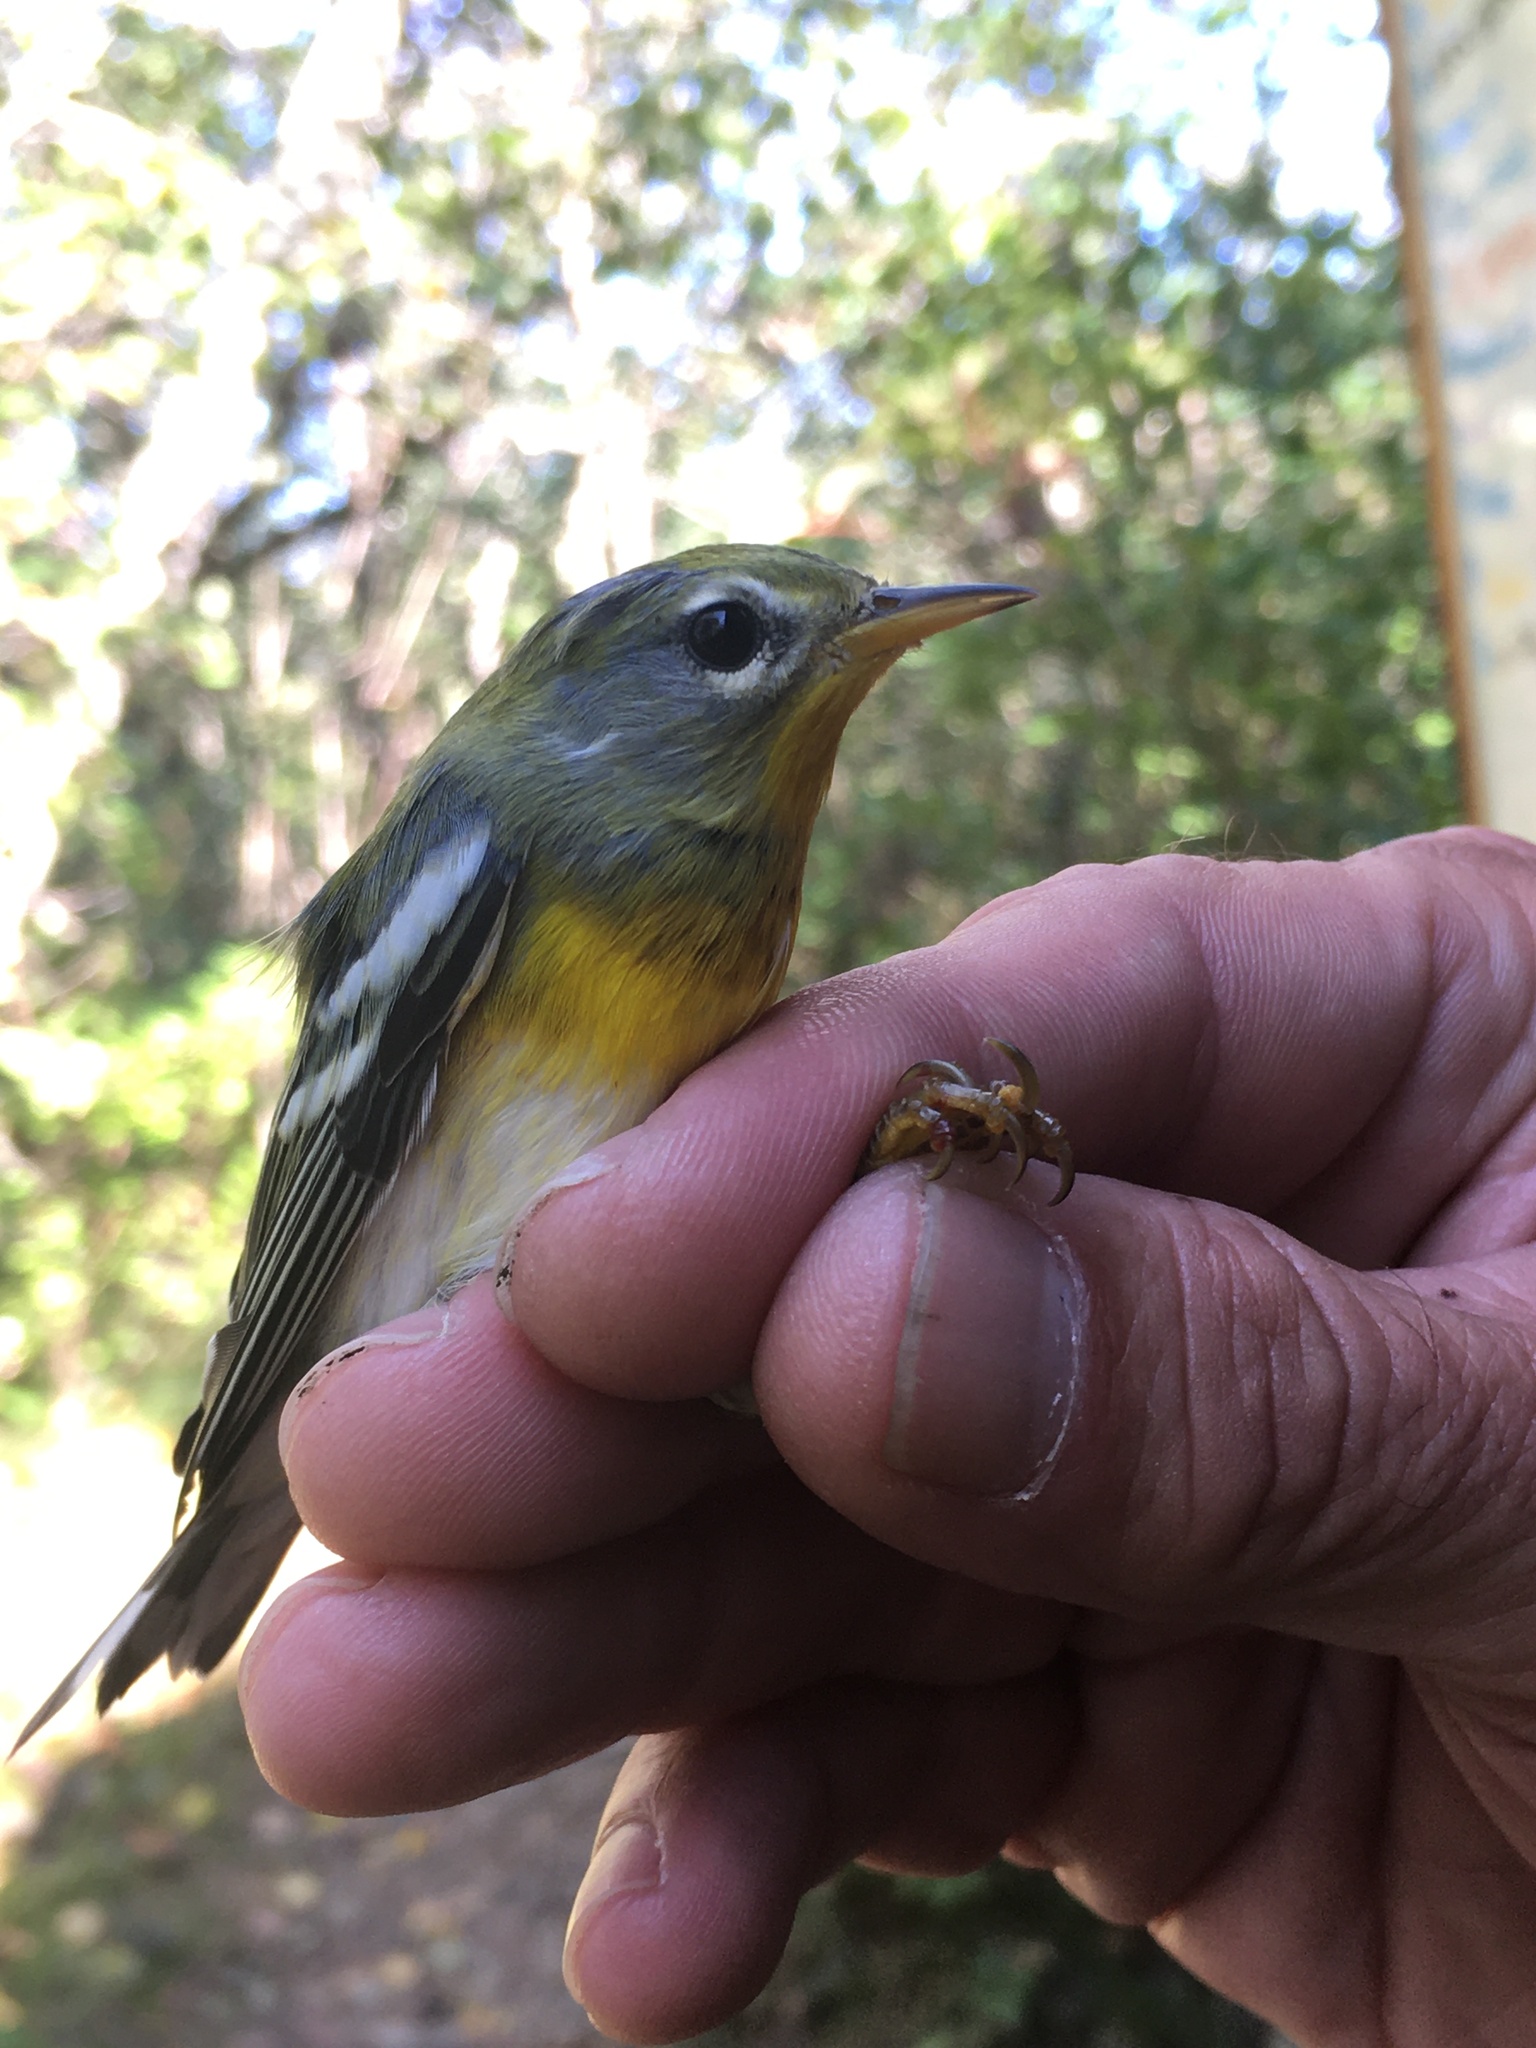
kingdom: Animalia
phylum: Chordata
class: Aves
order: Passeriformes
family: Parulidae
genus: Setophaga
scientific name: Setophaga americana
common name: Northern parula
